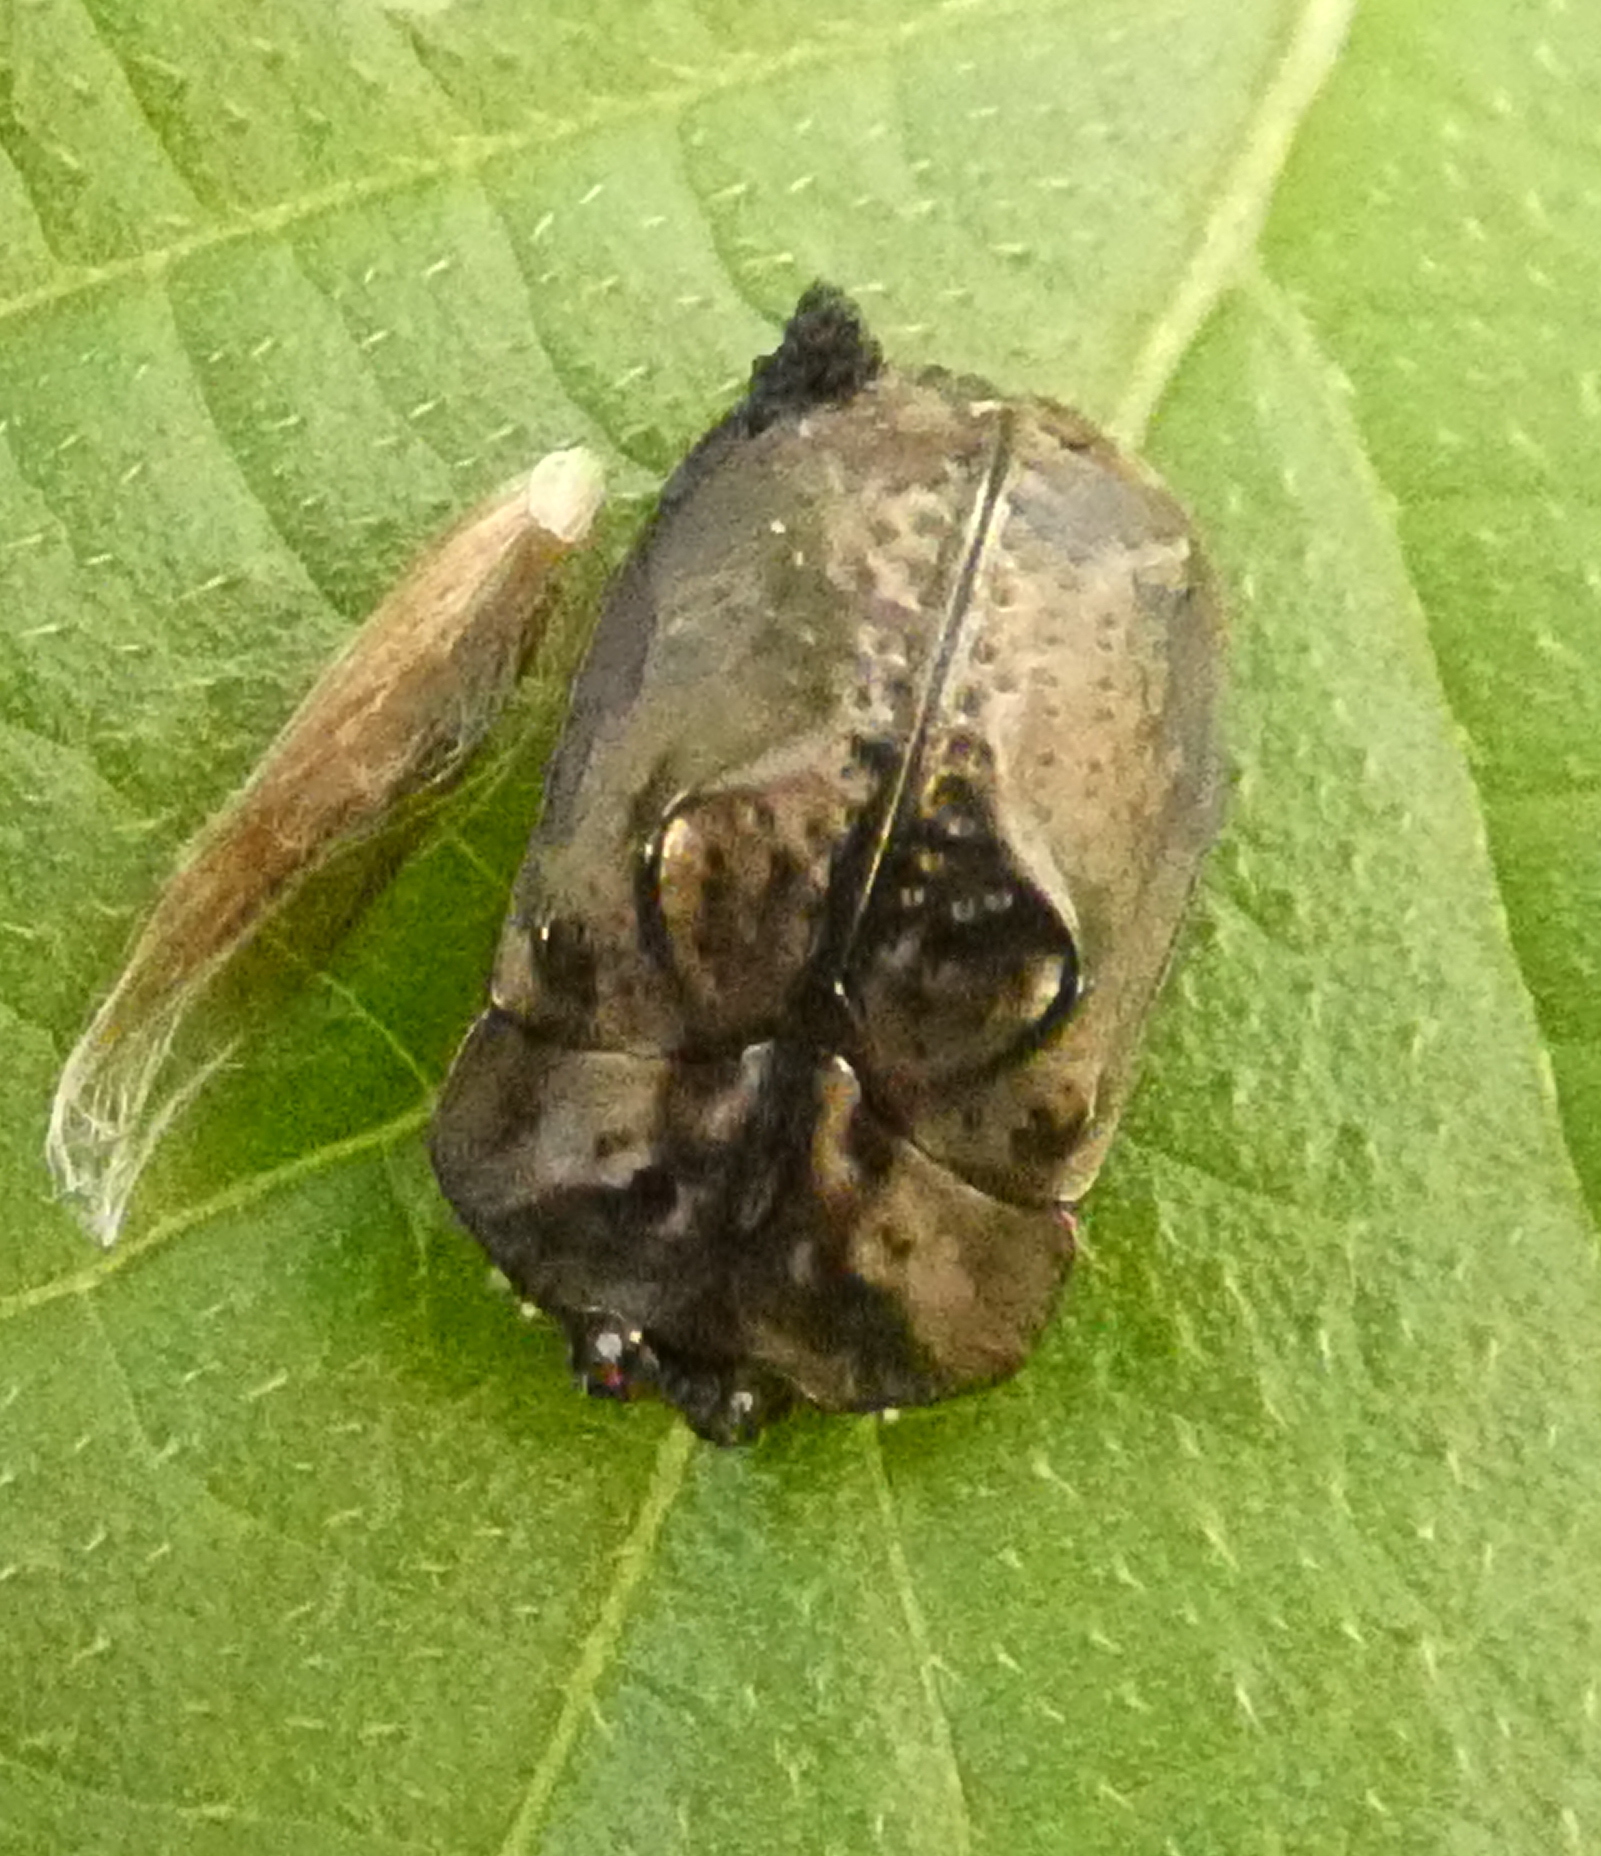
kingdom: Animalia
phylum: Arthropoda
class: Insecta
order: Coleoptera
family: Chrysomelidae
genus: Chlamydocassis
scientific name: Chlamydocassis bicornuta
